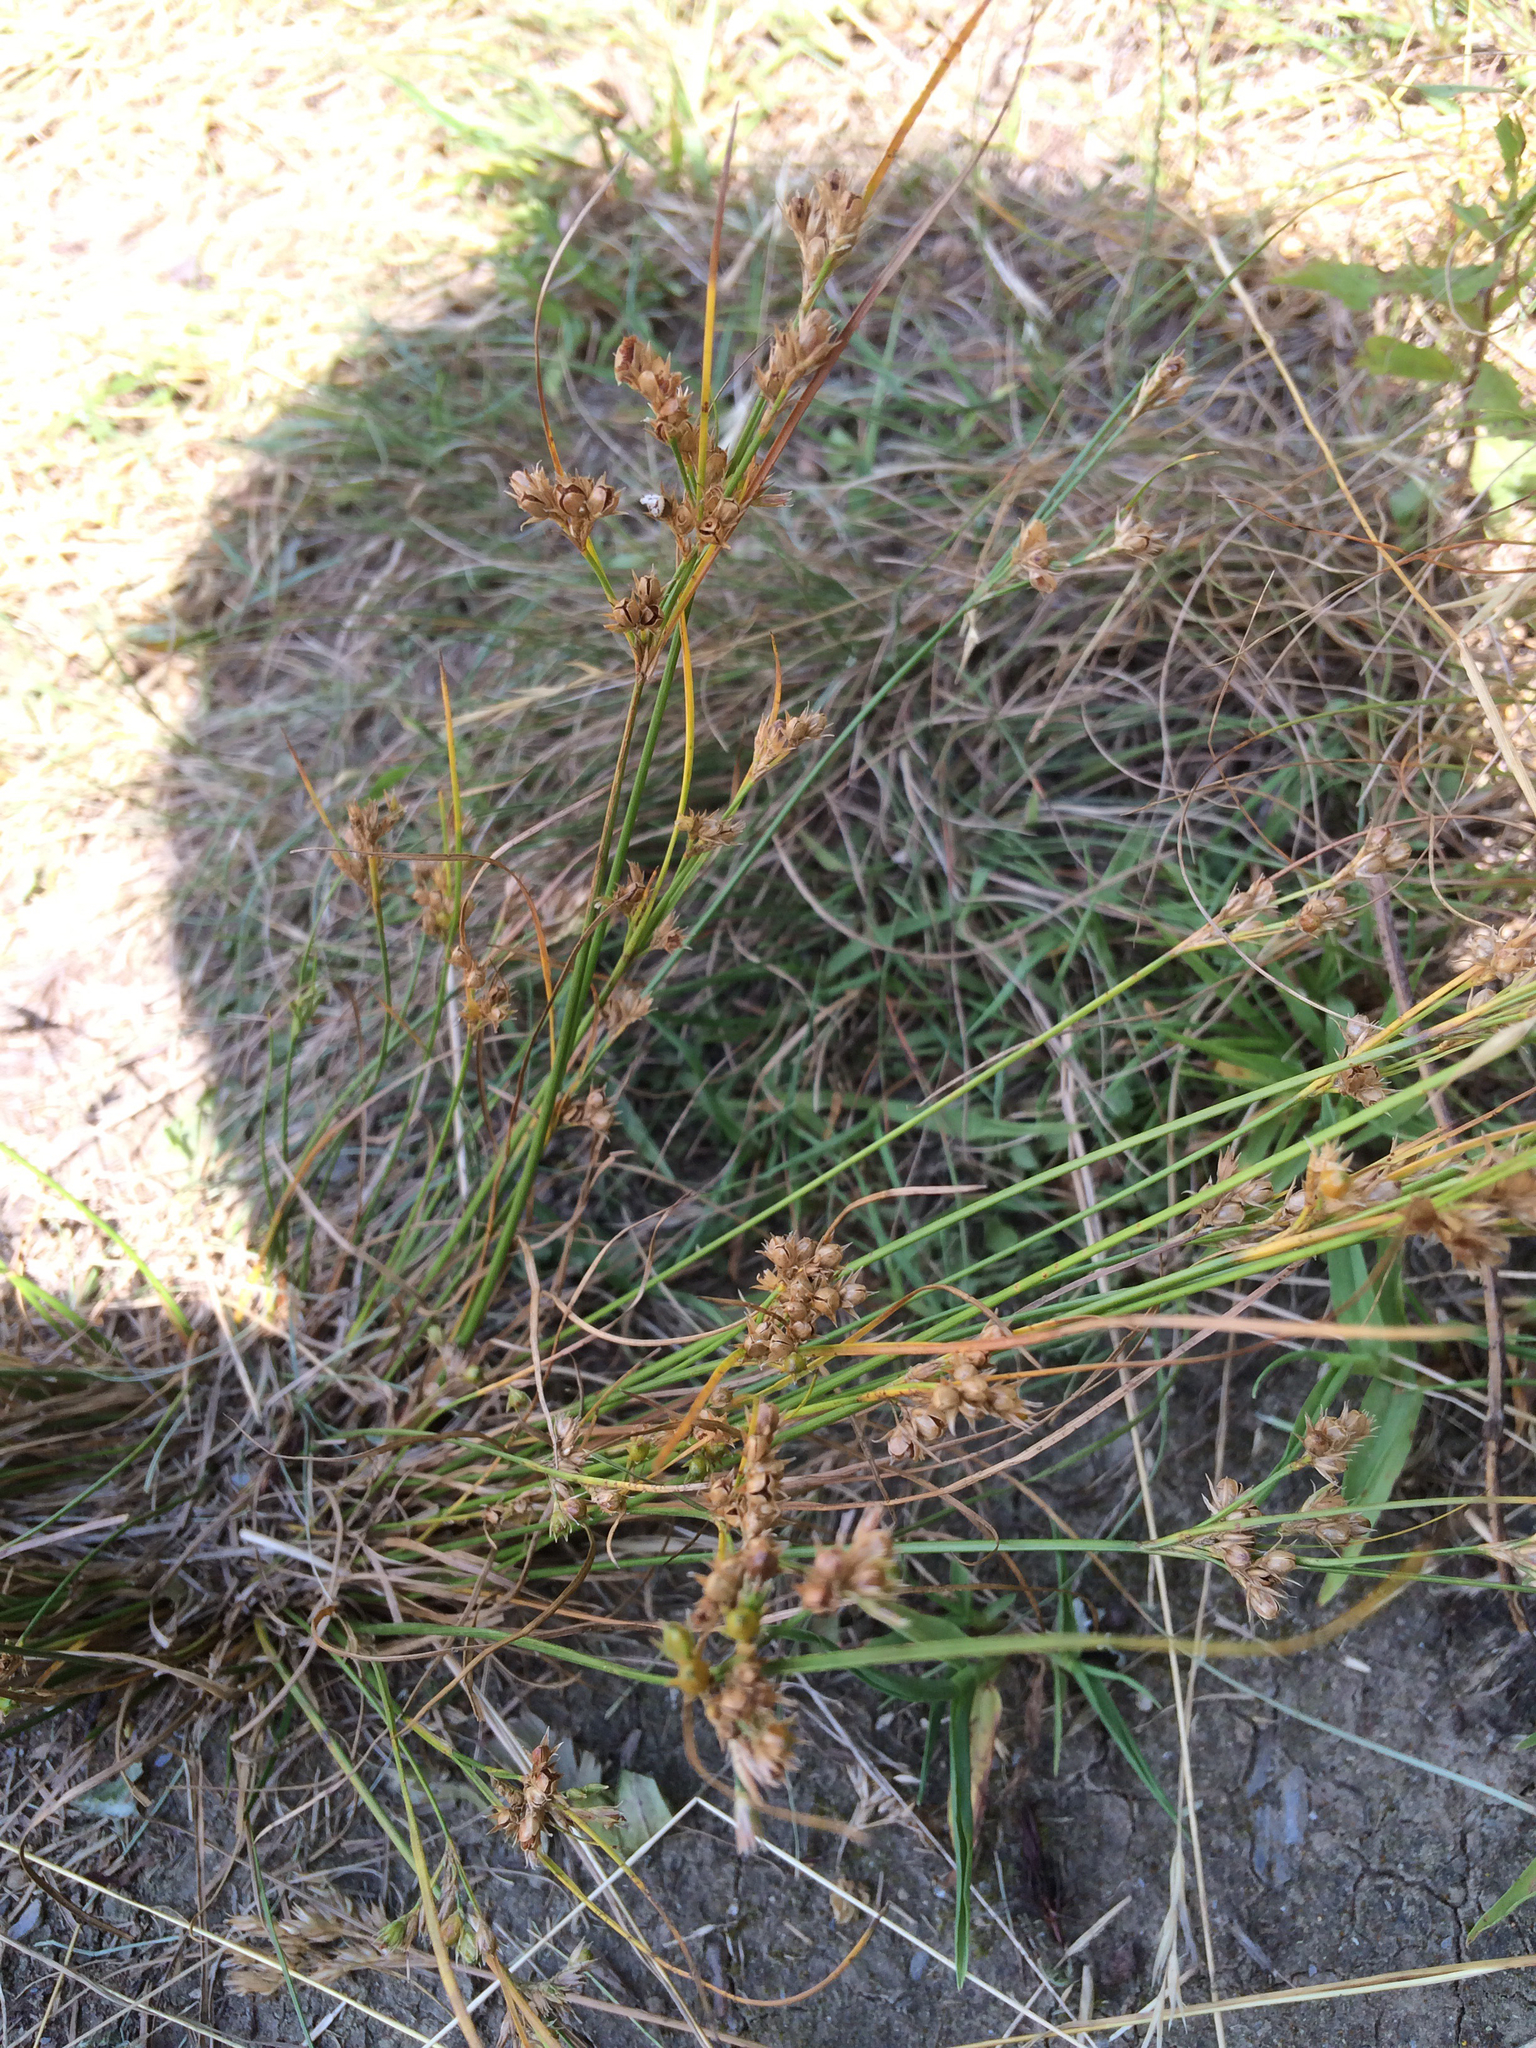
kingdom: Plantae
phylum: Tracheophyta
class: Liliopsida
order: Poales
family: Juncaceae
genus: Juncus
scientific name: Juncus tenuis
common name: Slender rush
